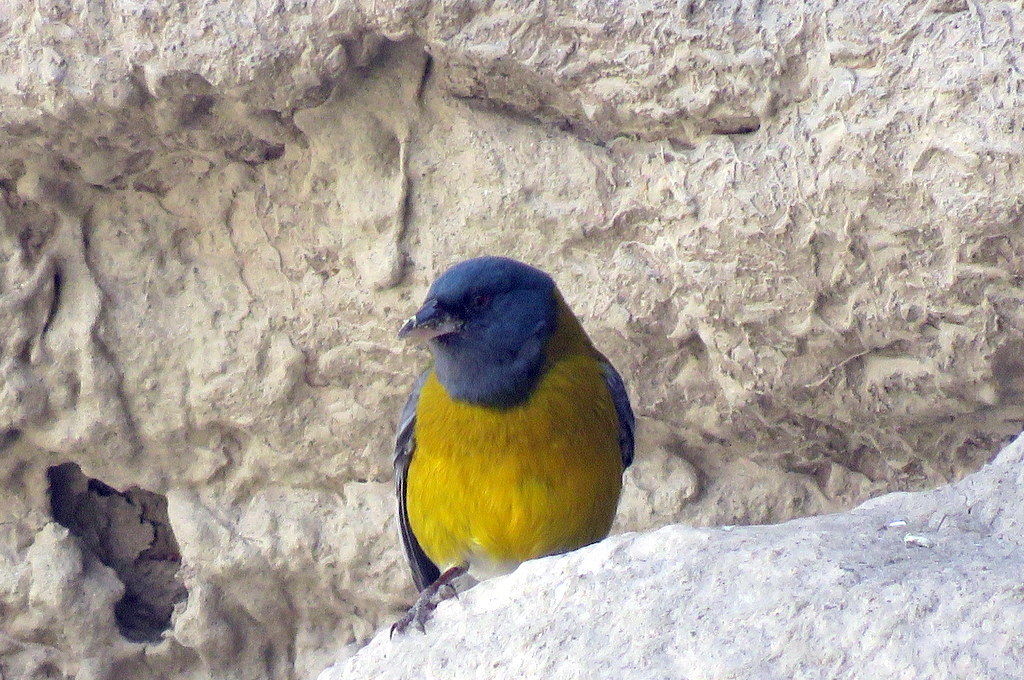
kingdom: Animalia
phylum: Chordata
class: Aves
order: Passeriformes
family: Thraupidae
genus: Phrygilus
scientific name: Phrygilus gayi
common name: Grey-hooded sierra finch
